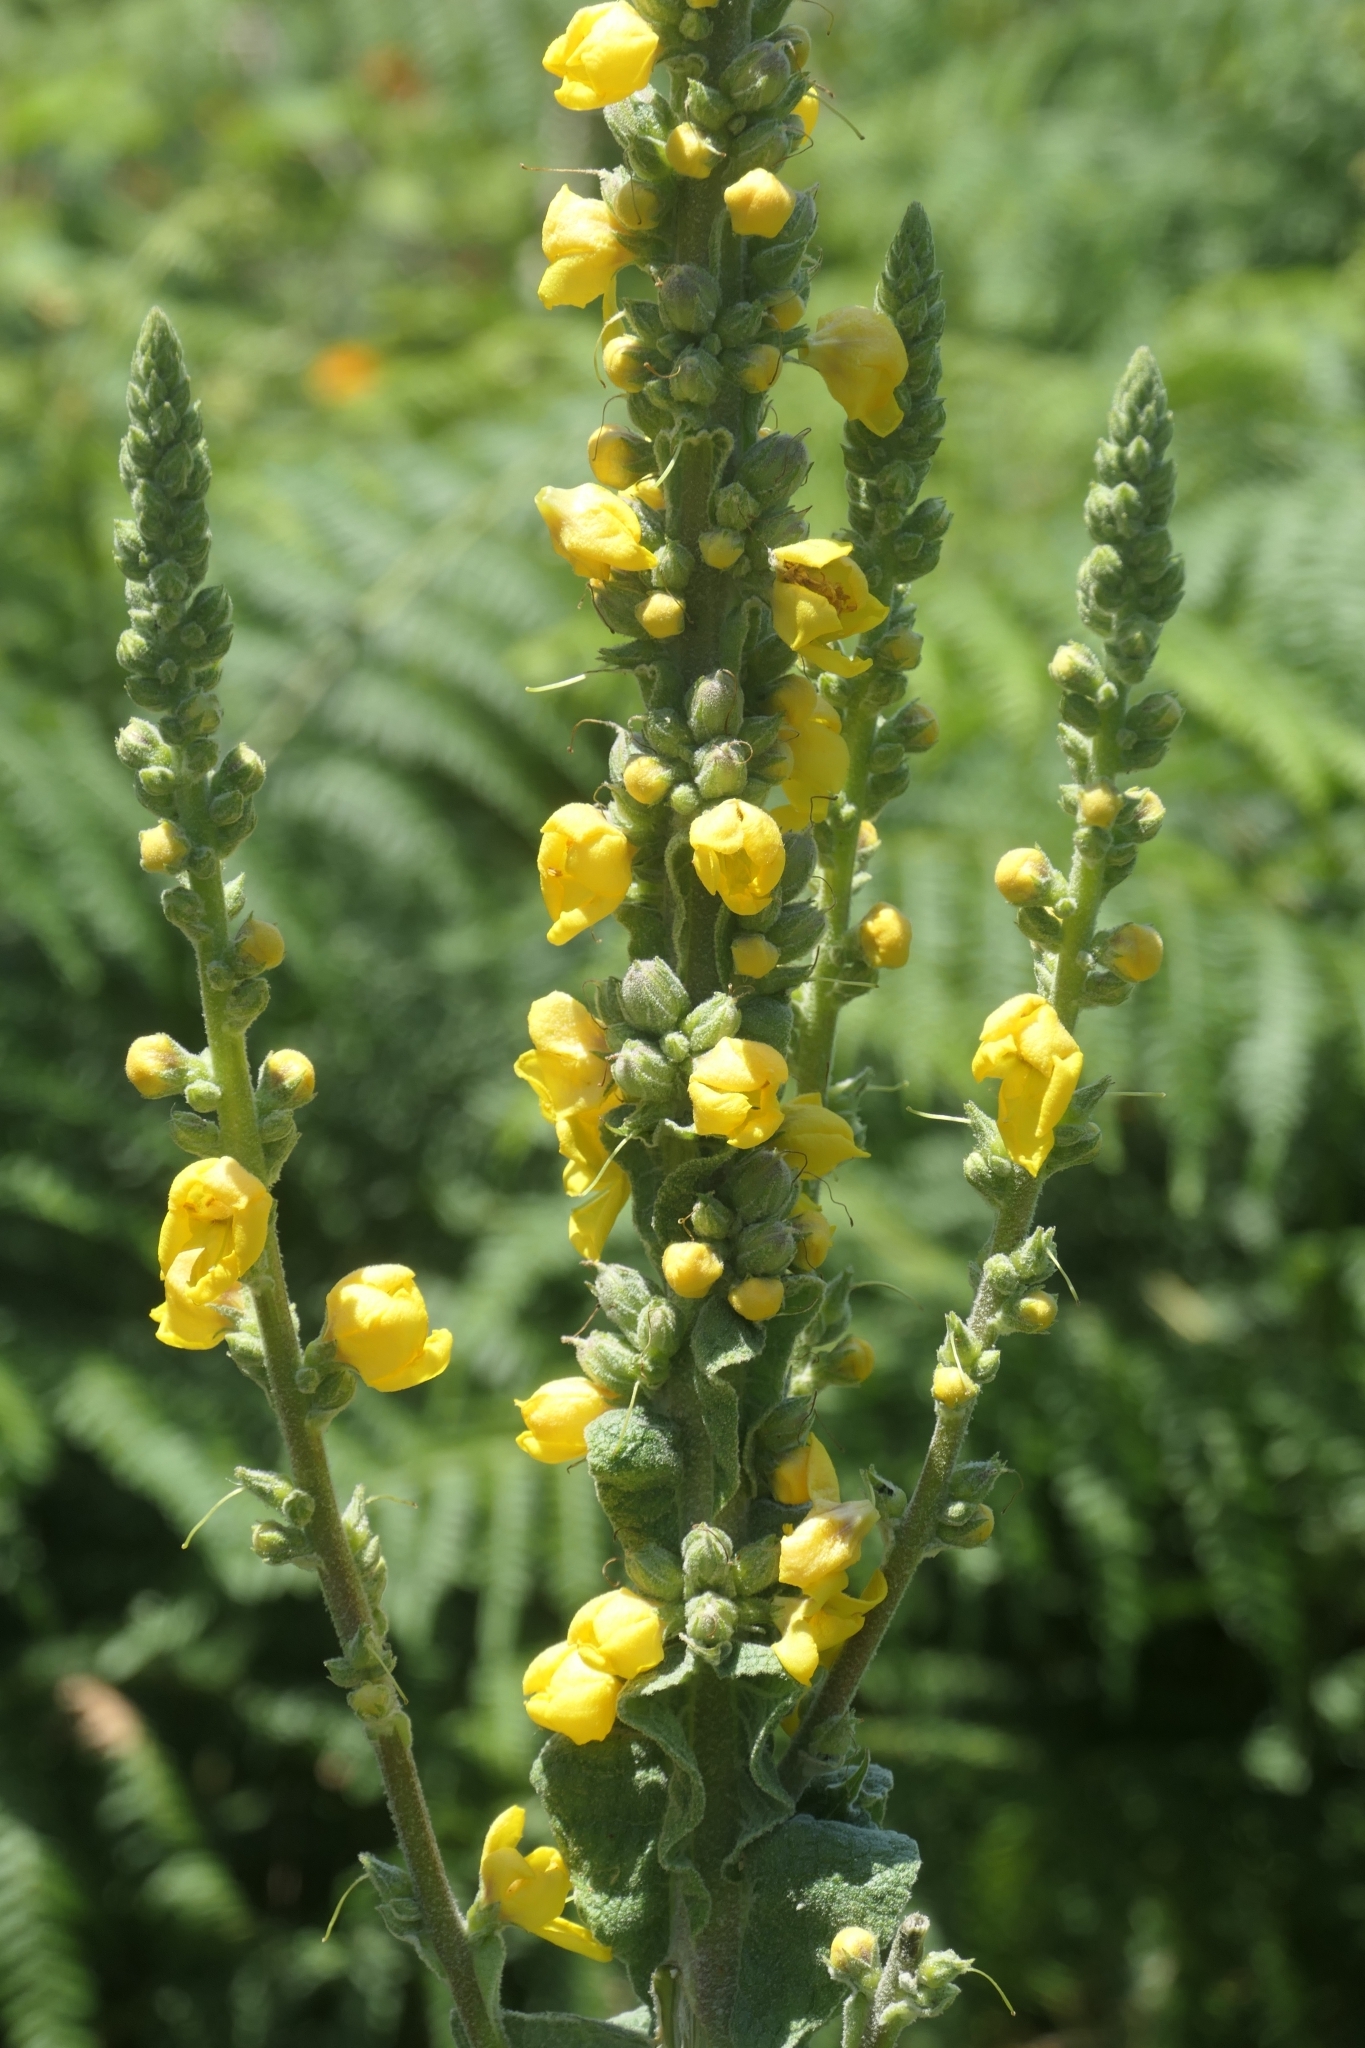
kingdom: Plantae
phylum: Tracheophyta
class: Magnoliopsida
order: Lamiales
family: Scrophulariaceae
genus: Verbascum
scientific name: Verbascum thapsus
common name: Common mullein
